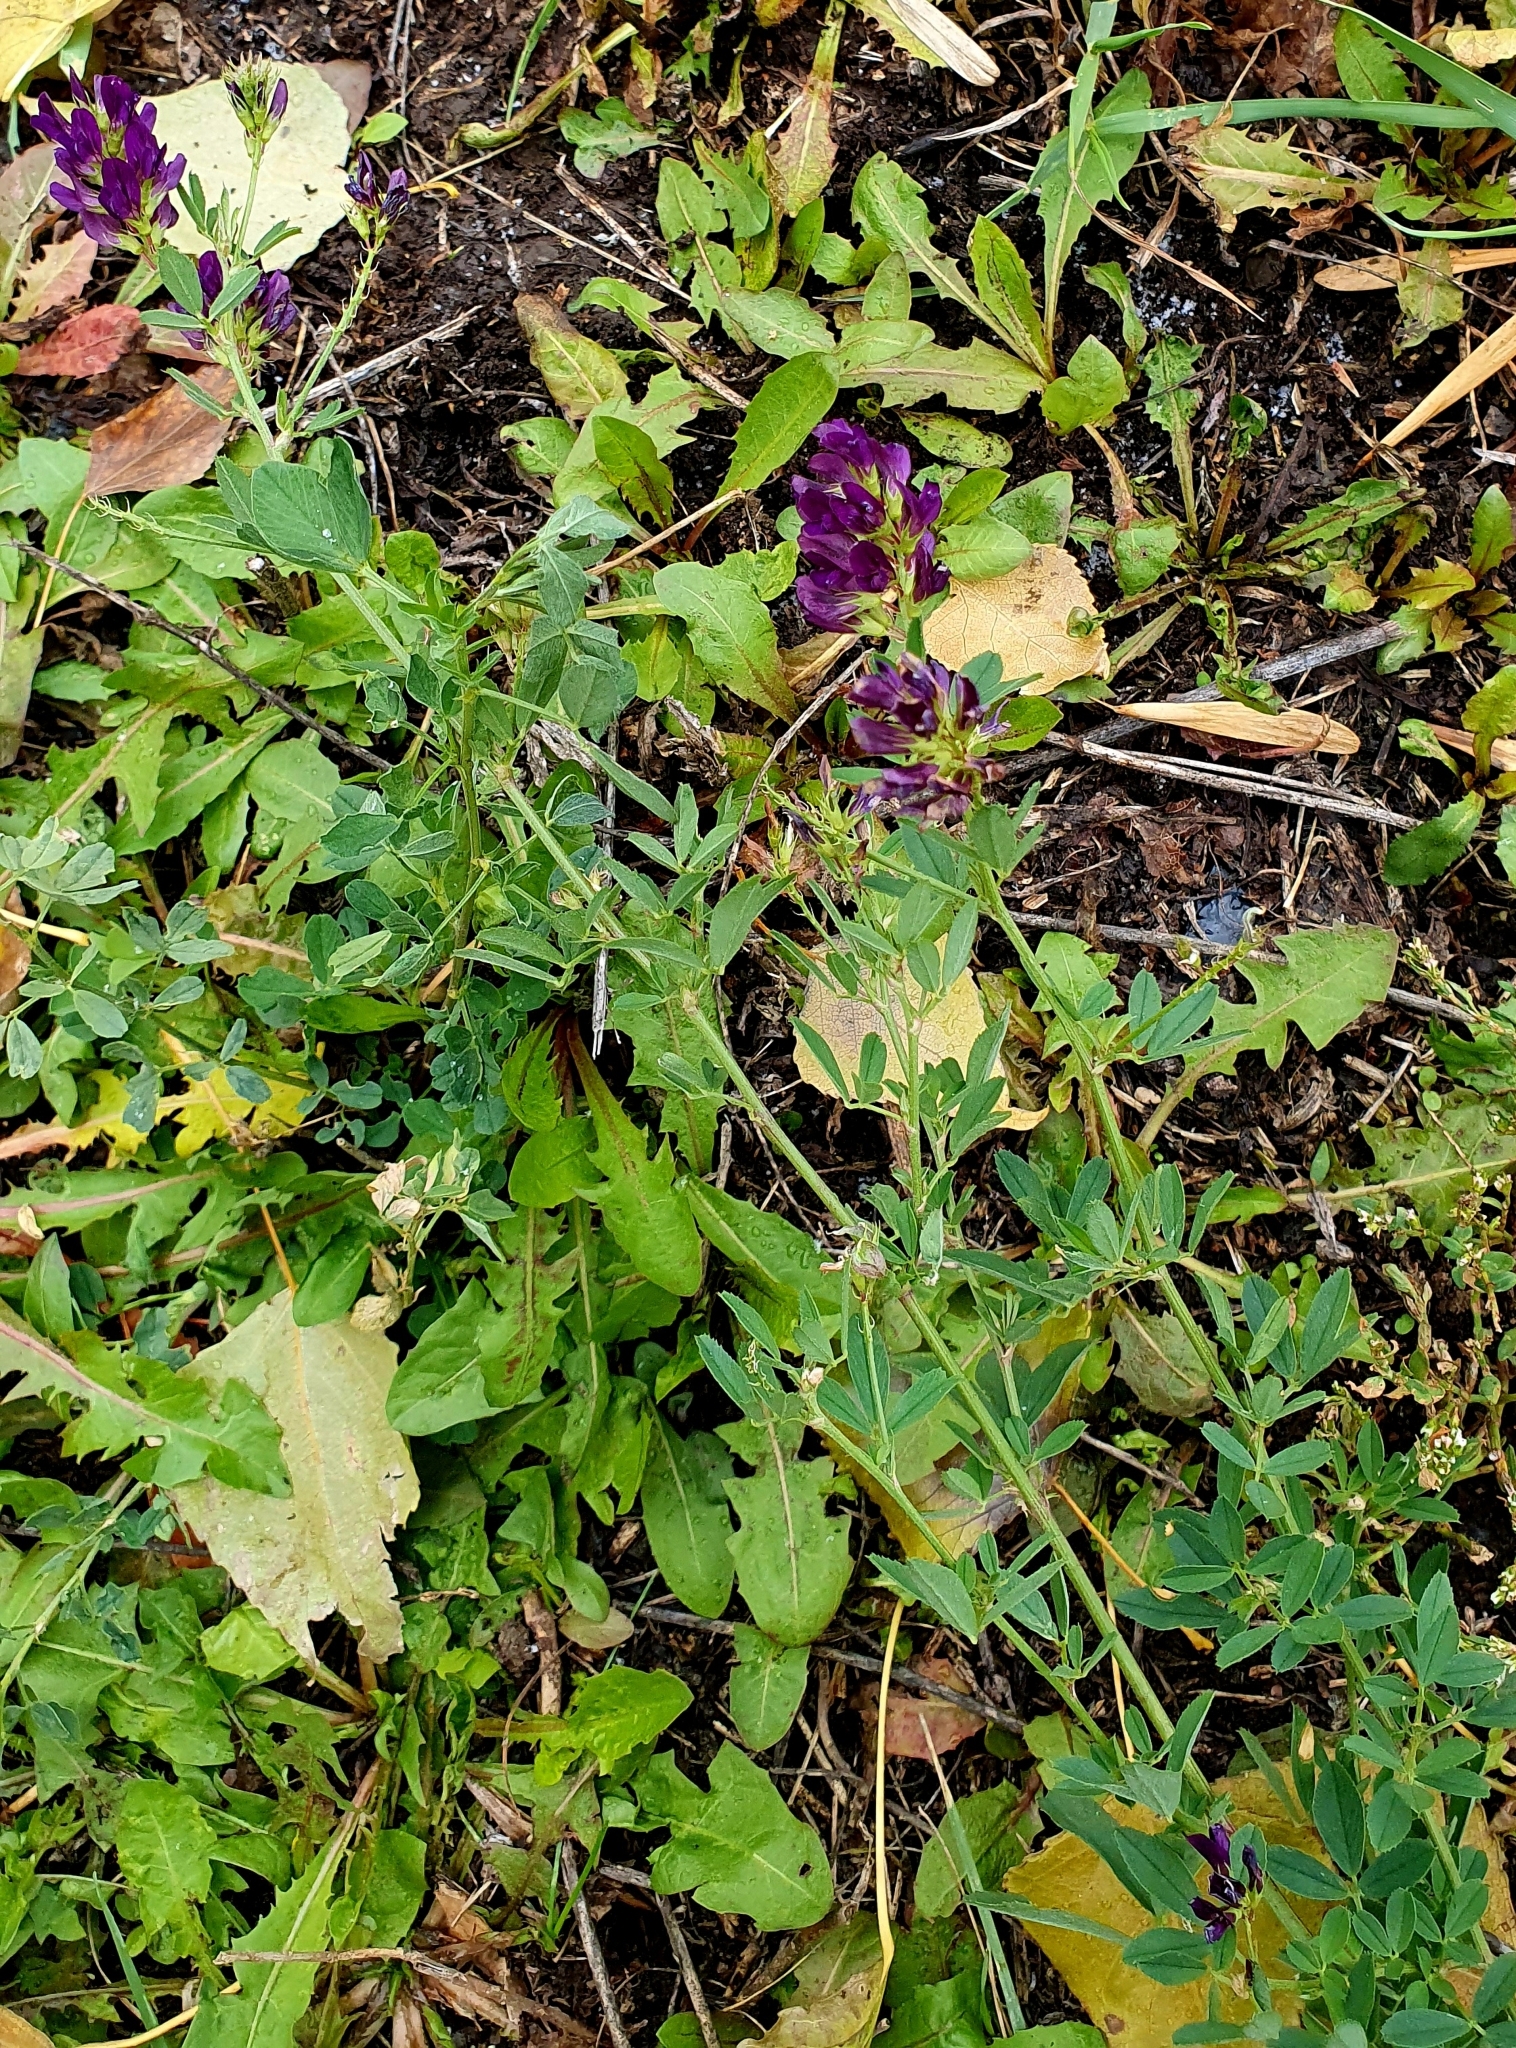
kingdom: Plantae
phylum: Tracheophyta
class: Magnoliopsida
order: Fabales
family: Fabaceae
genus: Medicago
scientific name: Medicago sativa
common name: Alfalfa
